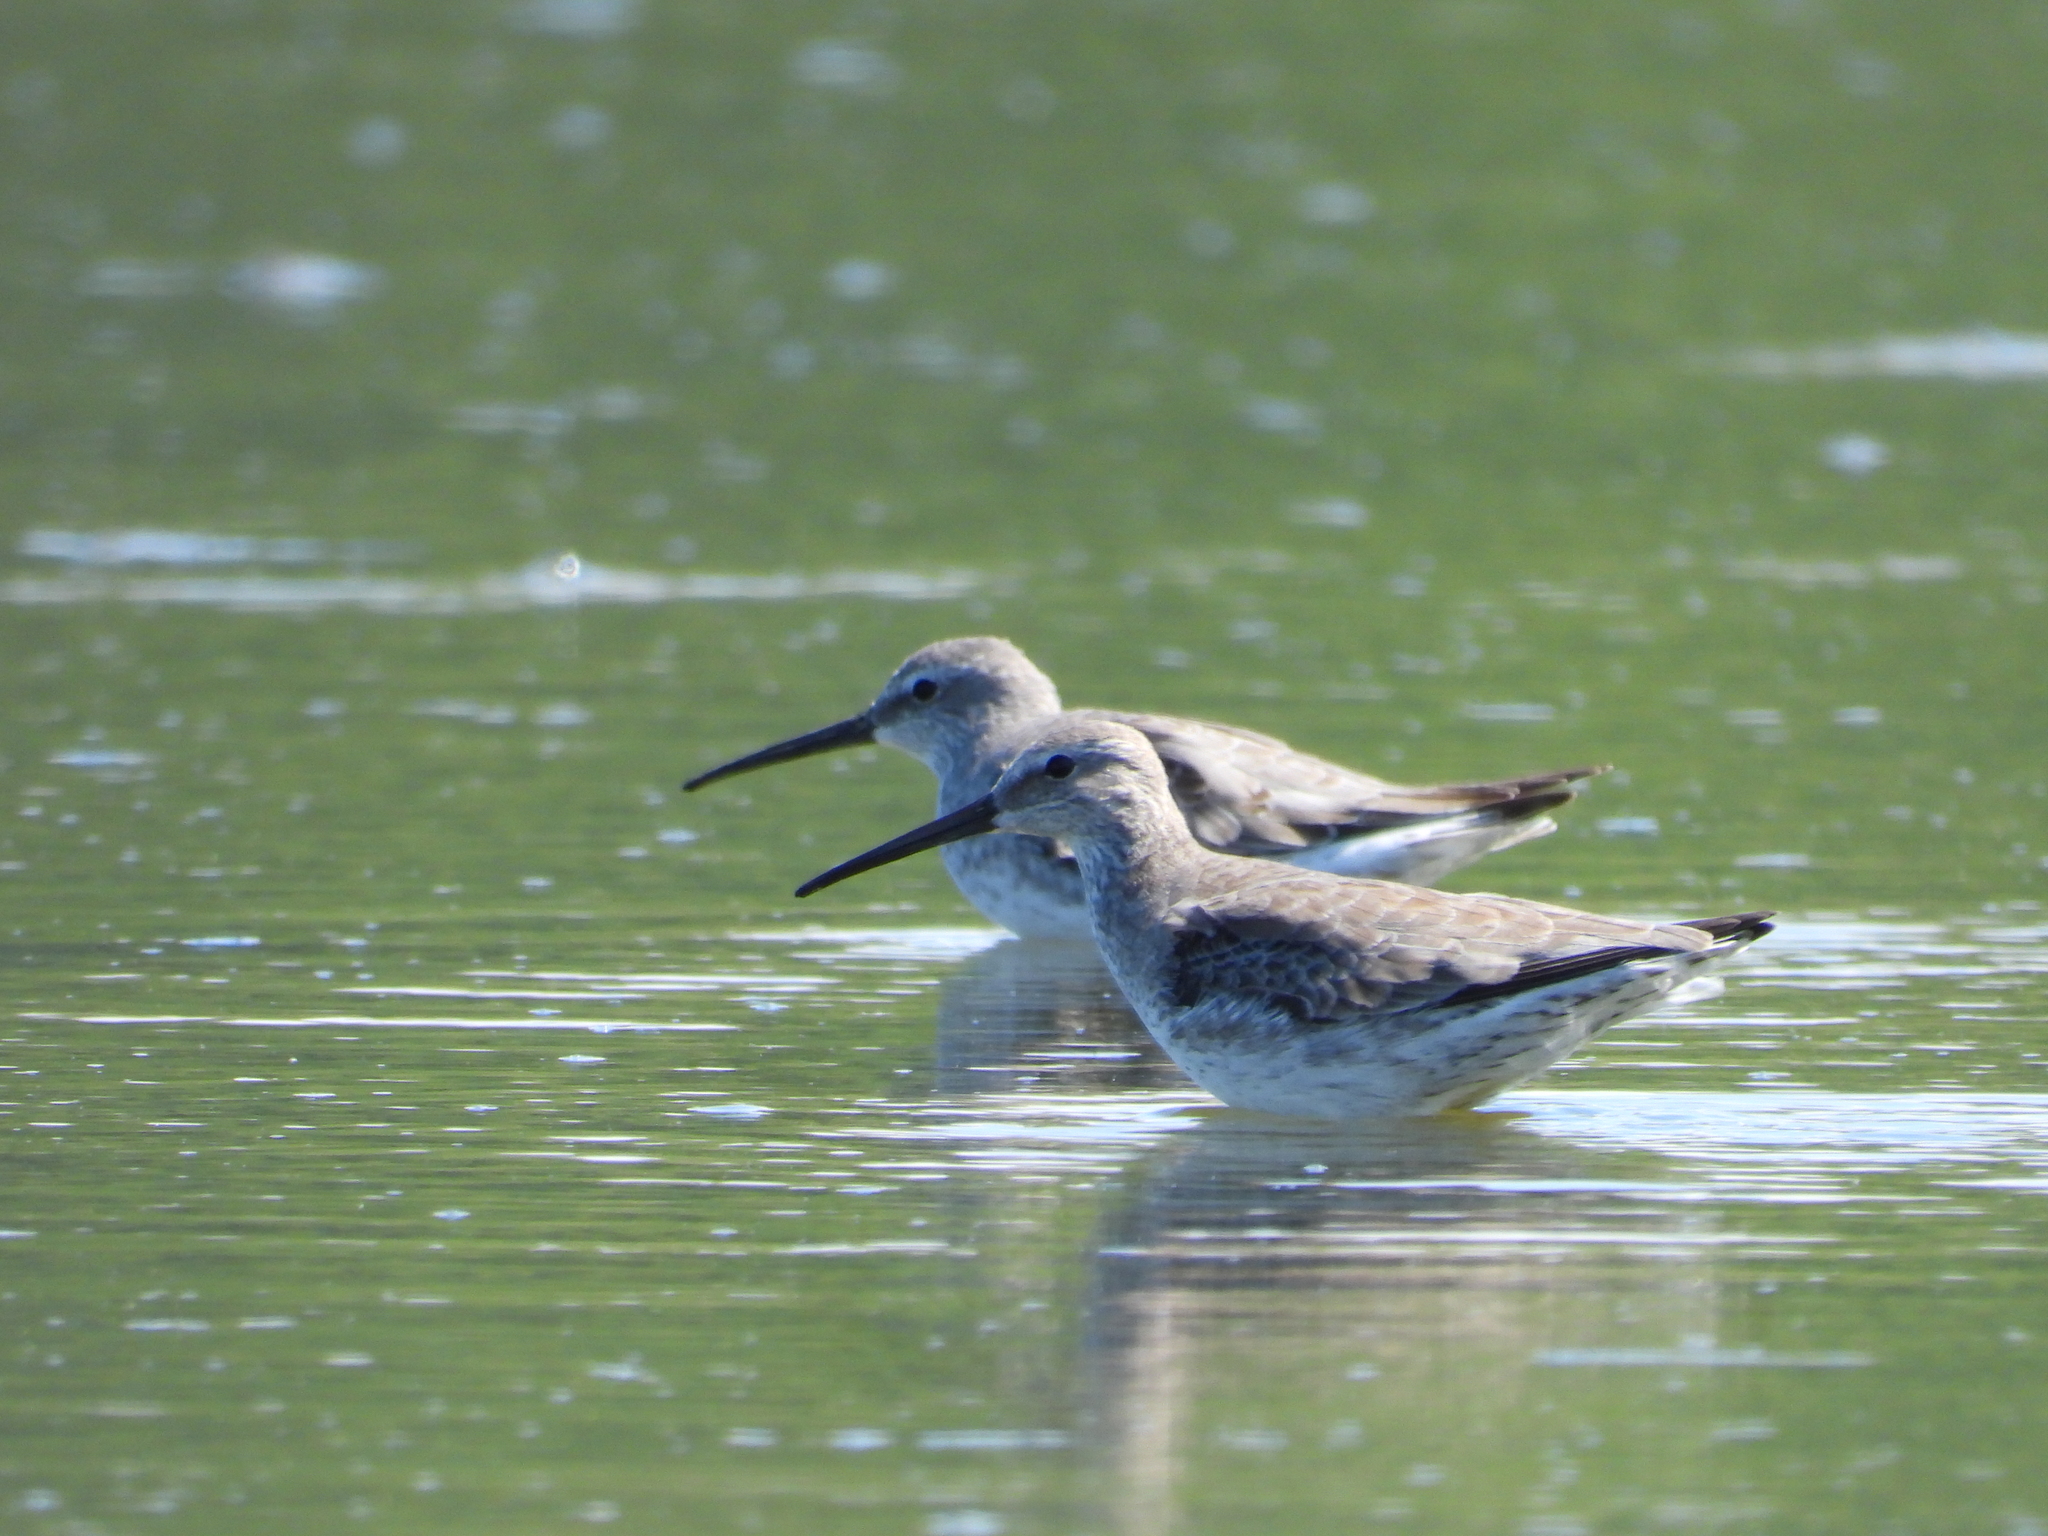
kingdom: Animalia
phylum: Chordata
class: Aves
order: Charadriiformes
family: Scolopacidae
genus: Calidris
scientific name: Calidris himantopus
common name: Stilt sandpiper
